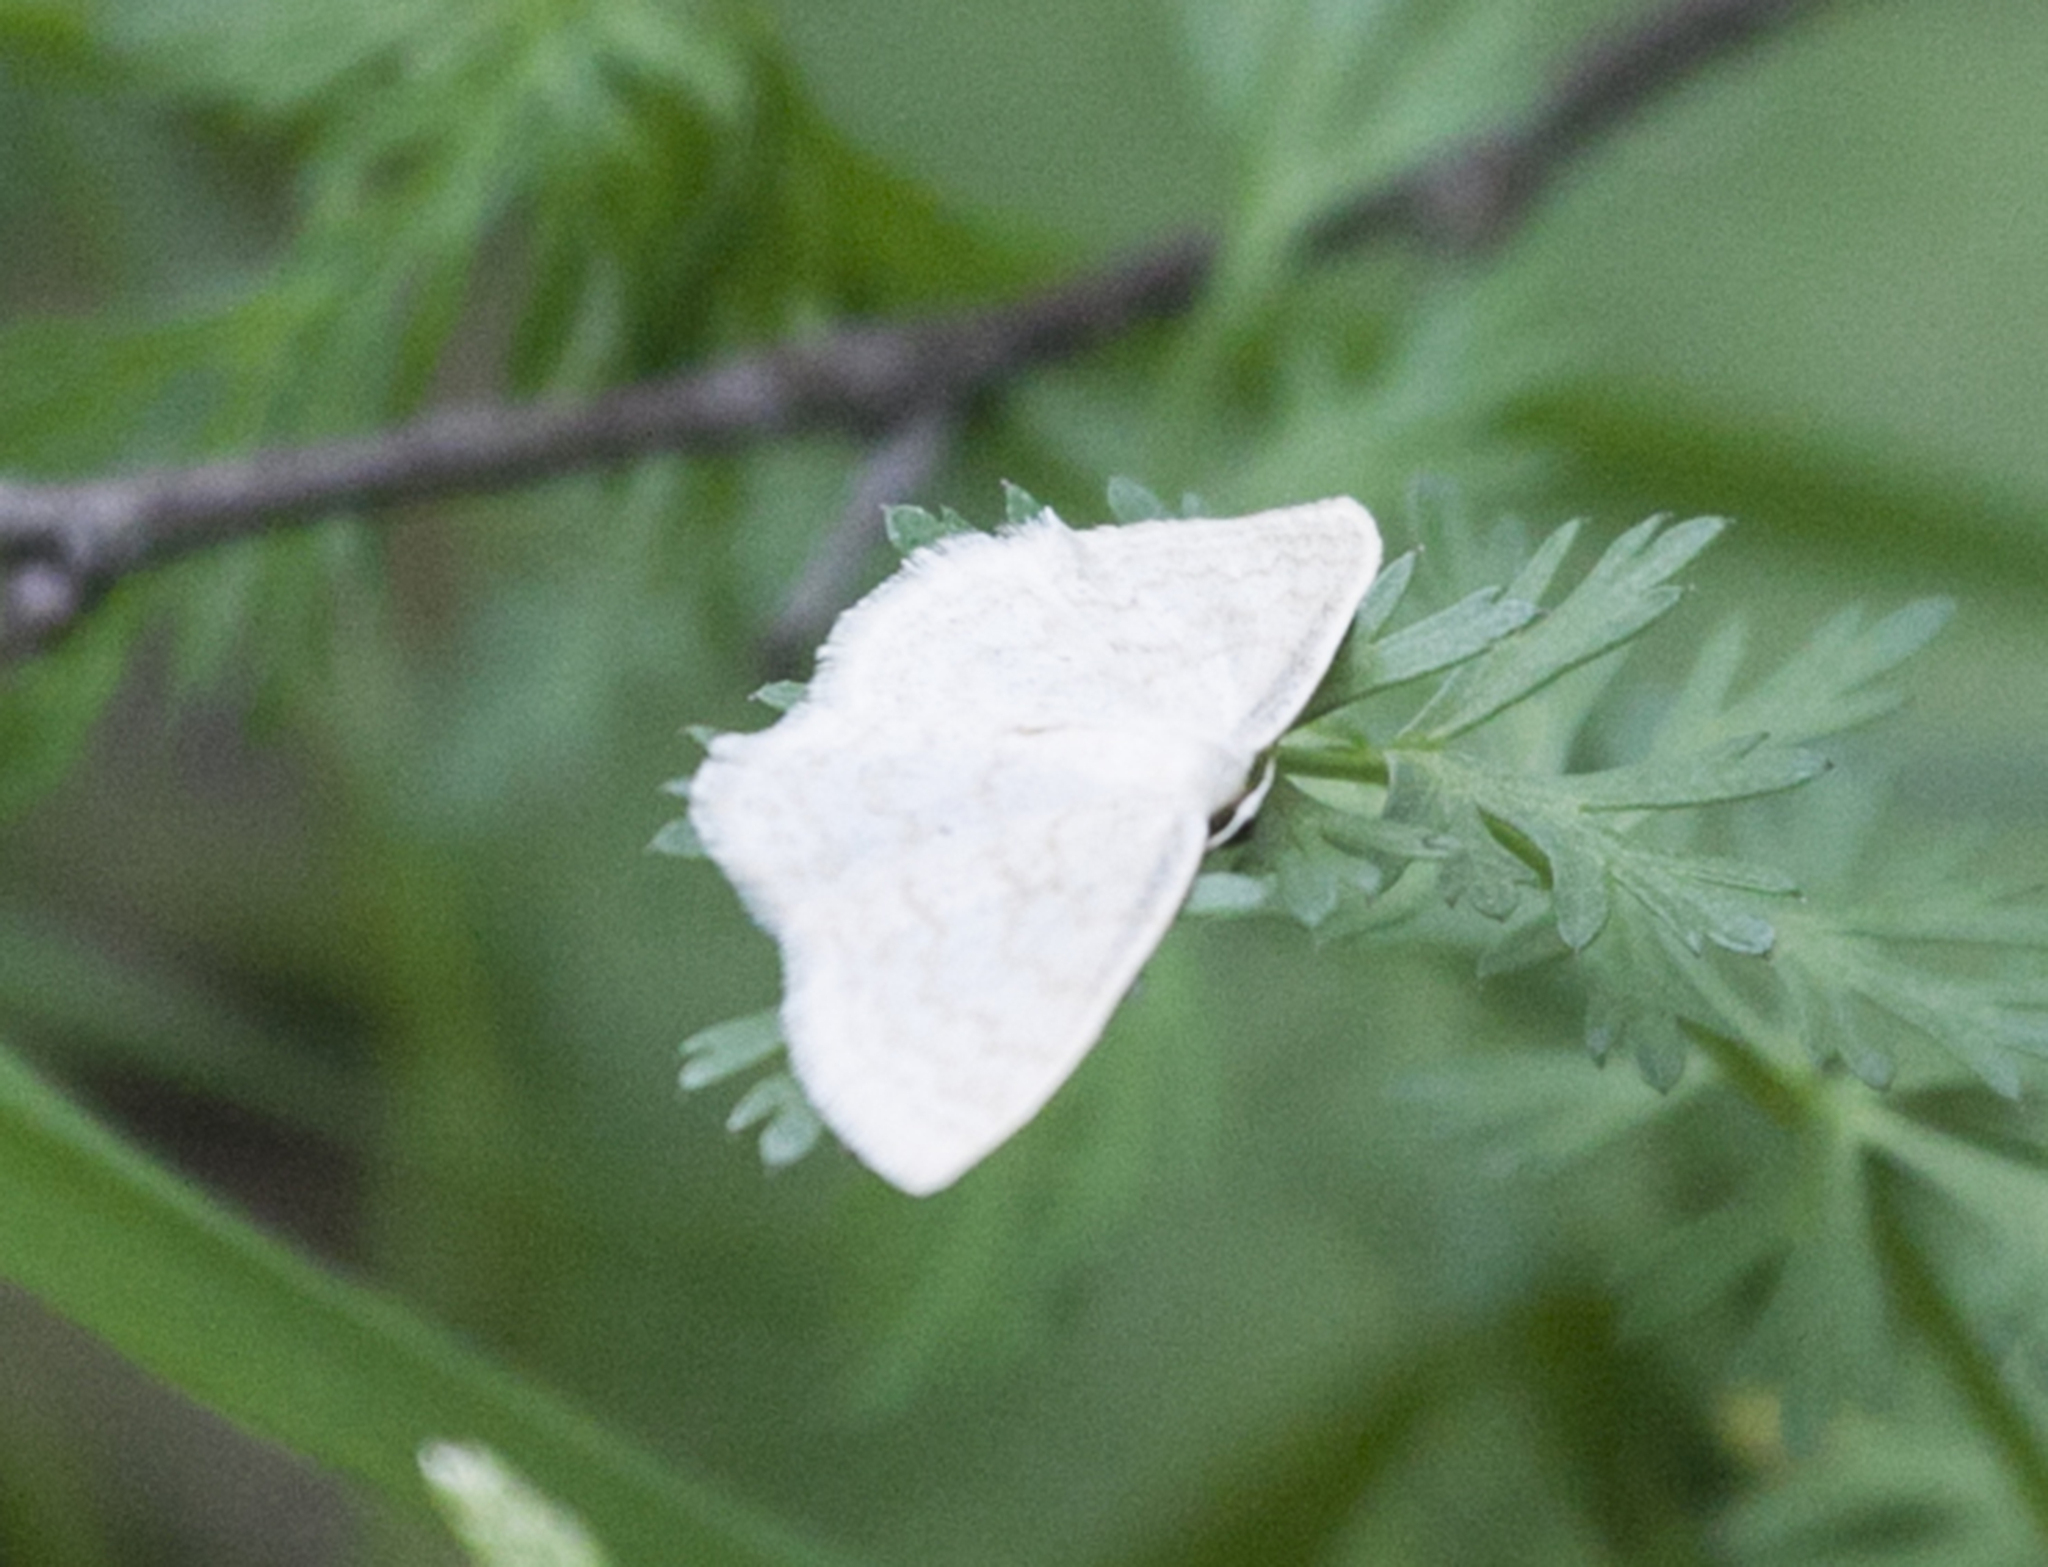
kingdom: Animalia
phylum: Arthropoda
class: Insecta
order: Lepidoptera
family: Geometridae
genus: Scopula
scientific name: Scopula floslactata
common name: Cream wave
